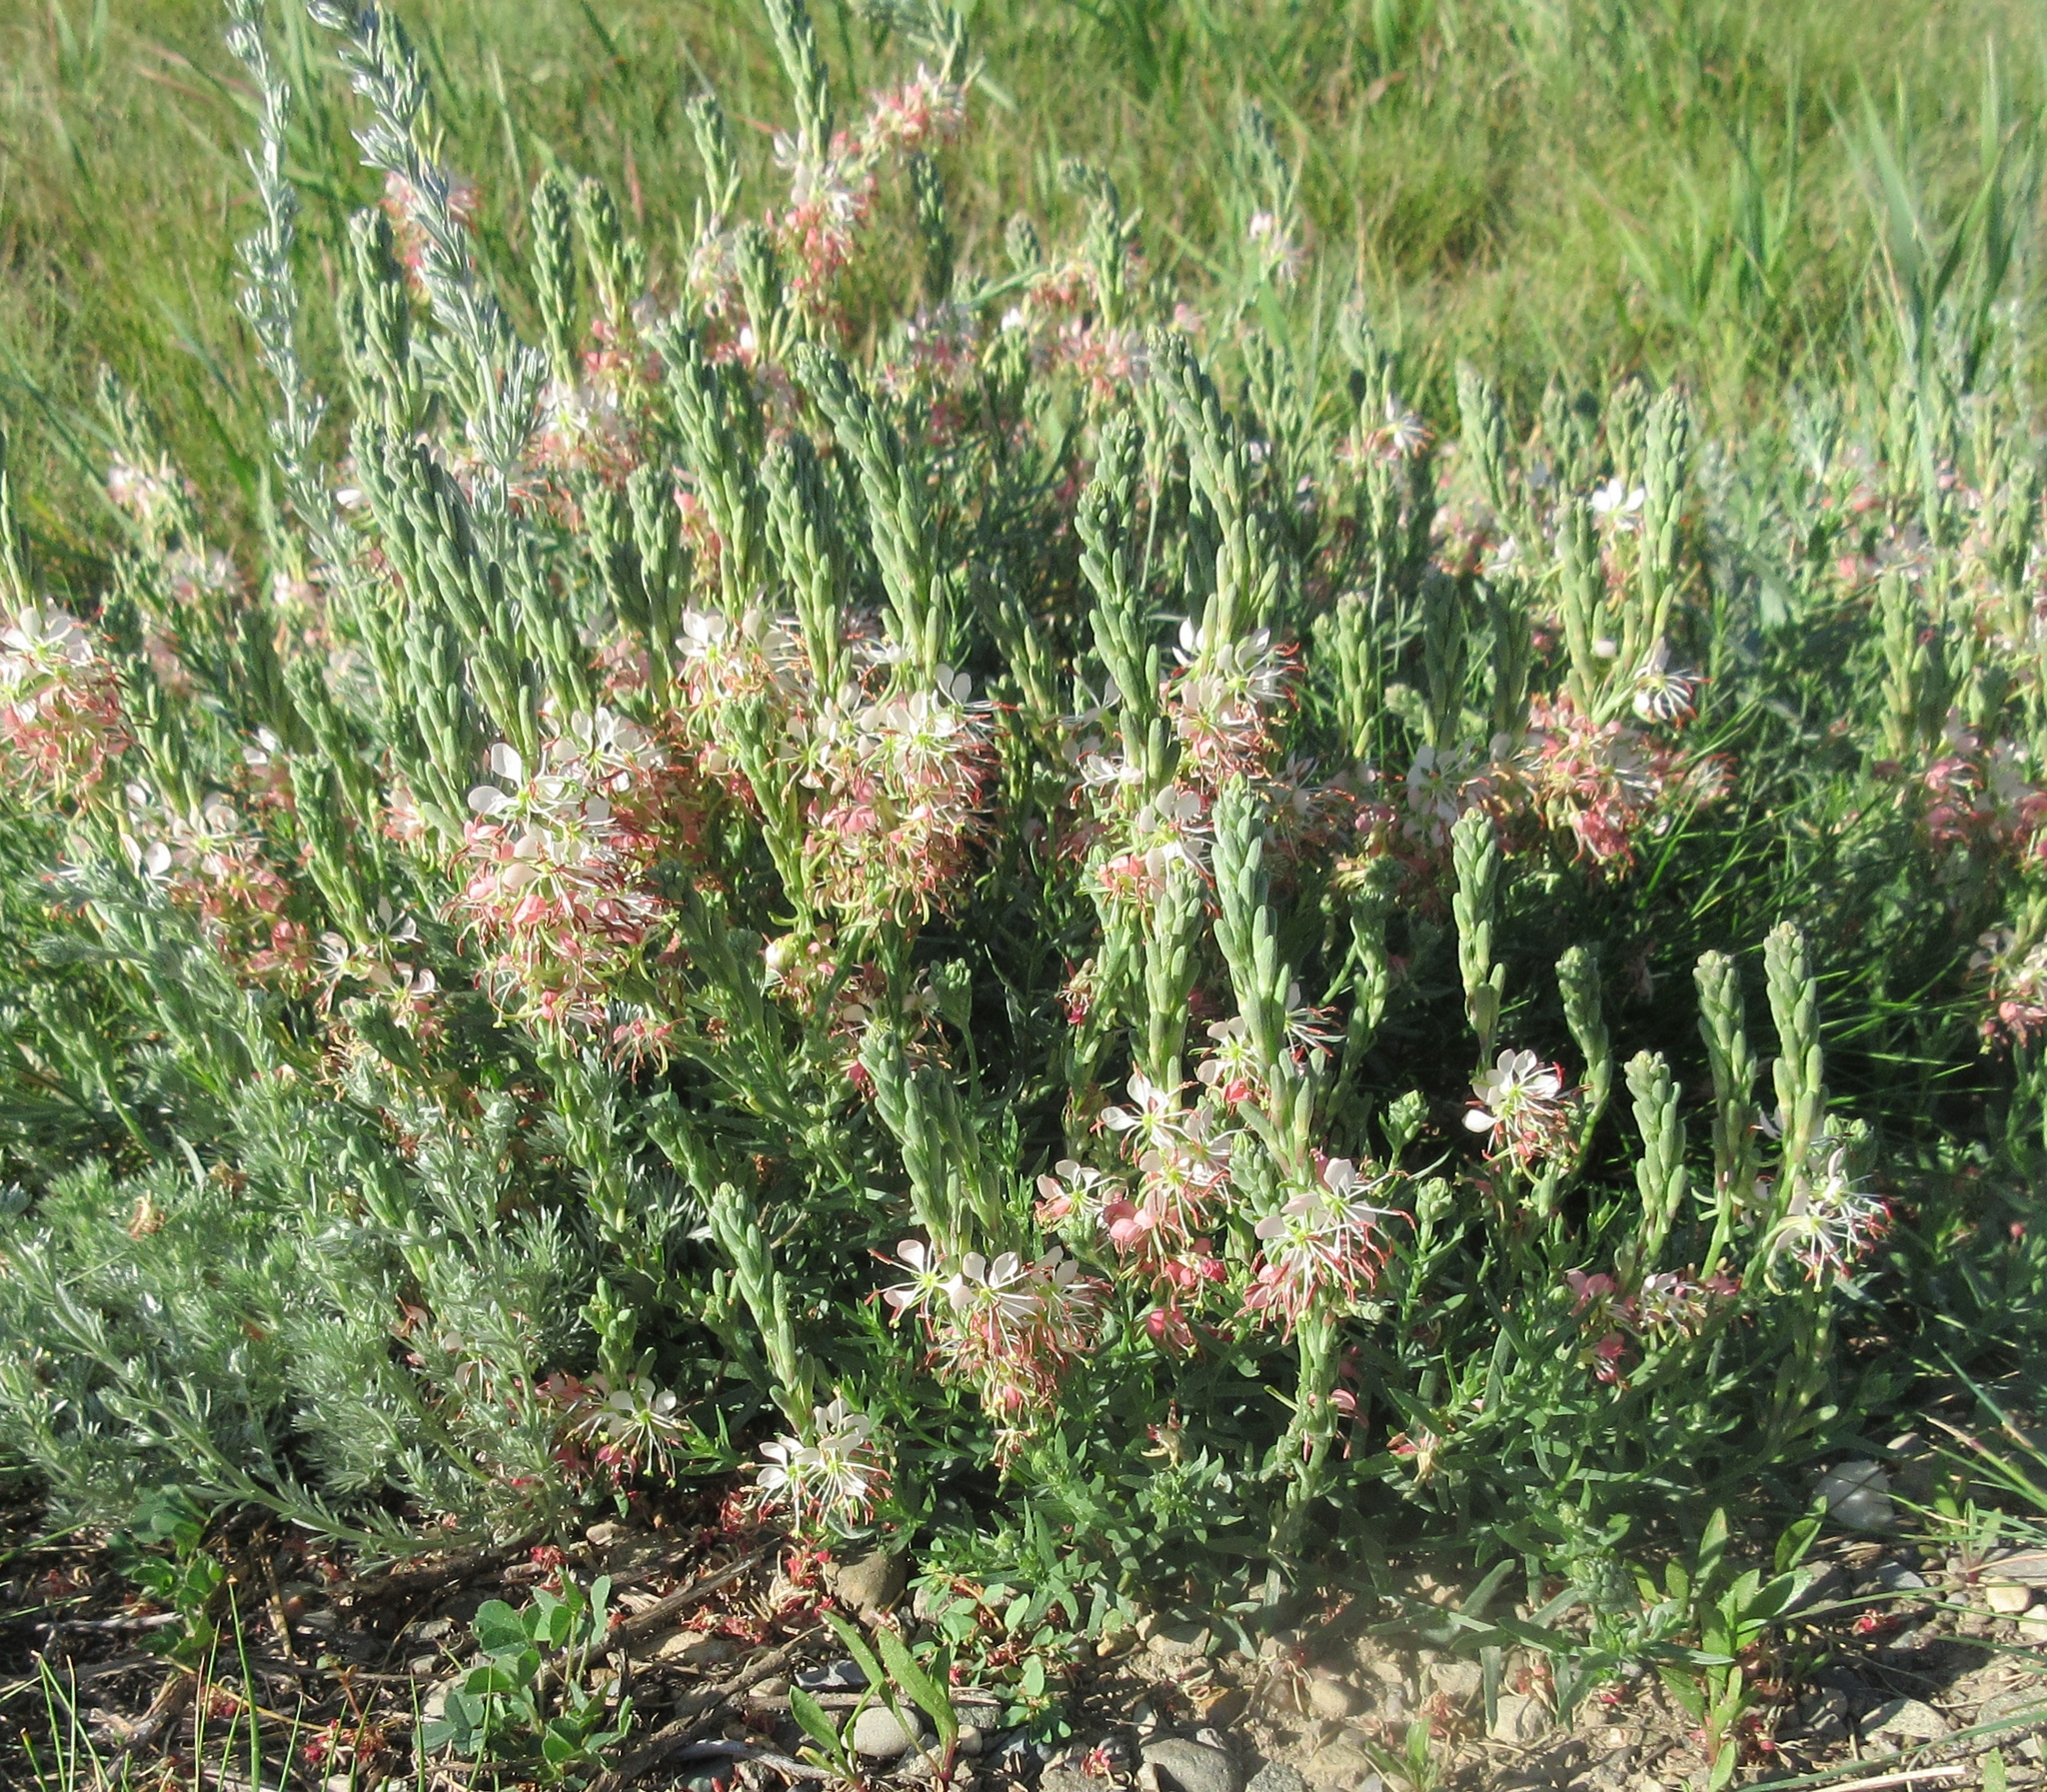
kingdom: Plantae
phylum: Tracheophyta
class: Magnoliopsida
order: Myrtales
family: Onagraceae
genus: Oenothera
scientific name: Oenothera suffrutescens
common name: Scarlet beeblossom
